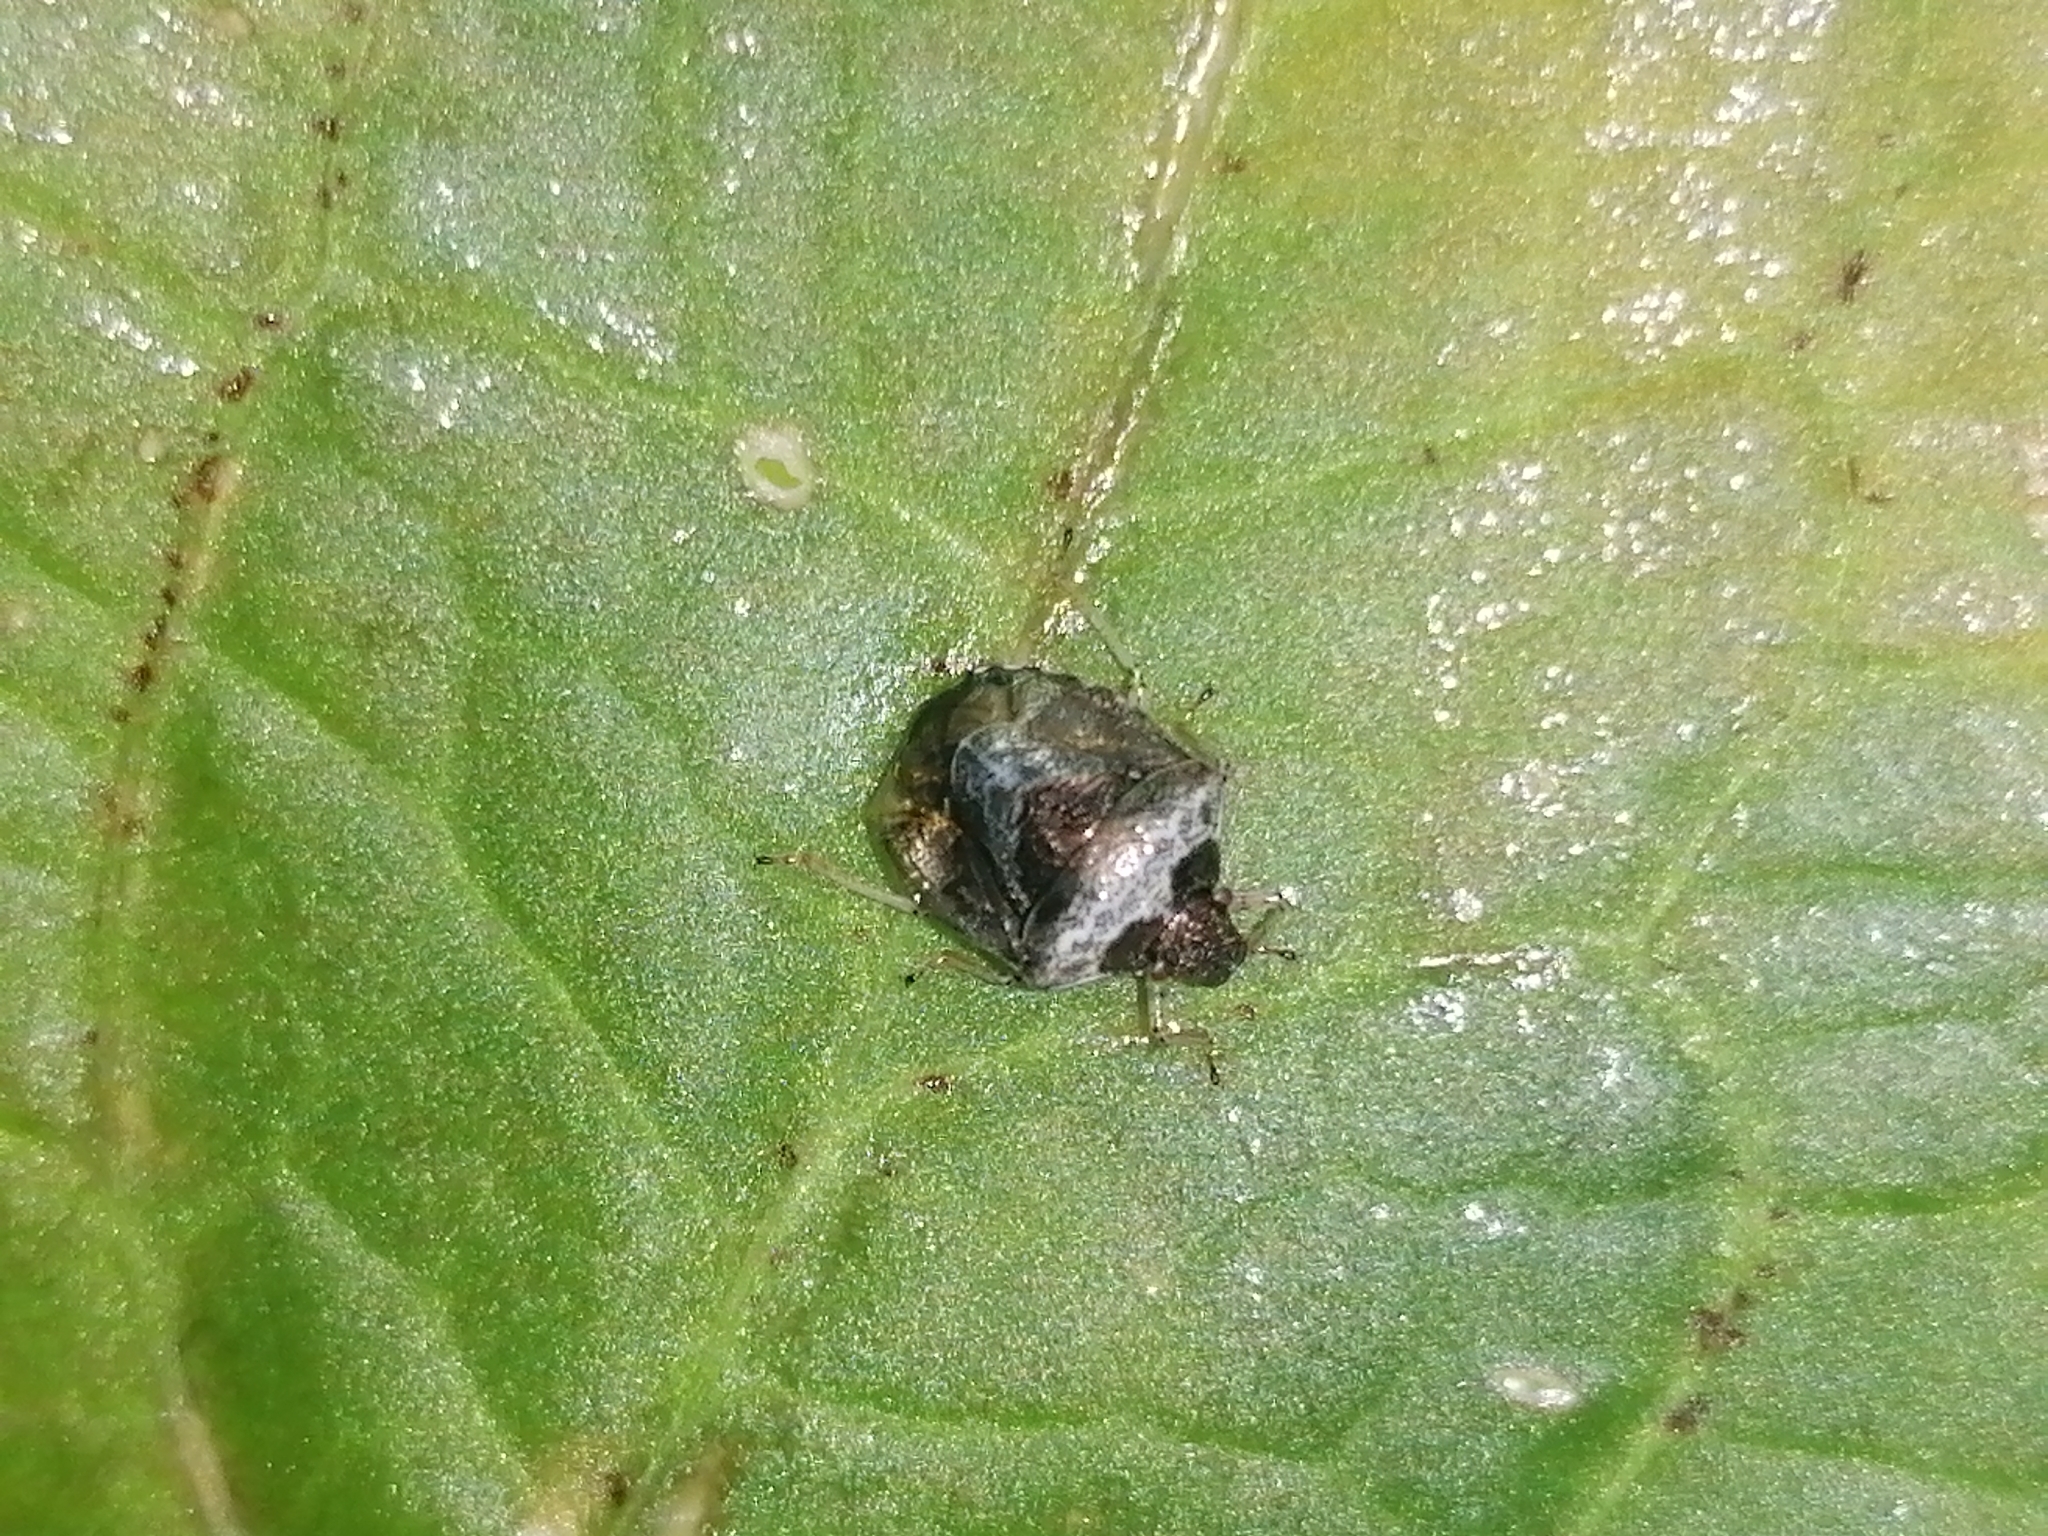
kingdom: Animalia
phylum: Arthropoda
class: Insecta
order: Hemiptera
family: Pentatomidae
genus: Eysarcoris
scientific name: Eysarcoris venustissimus
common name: Woundwort shieldbug
